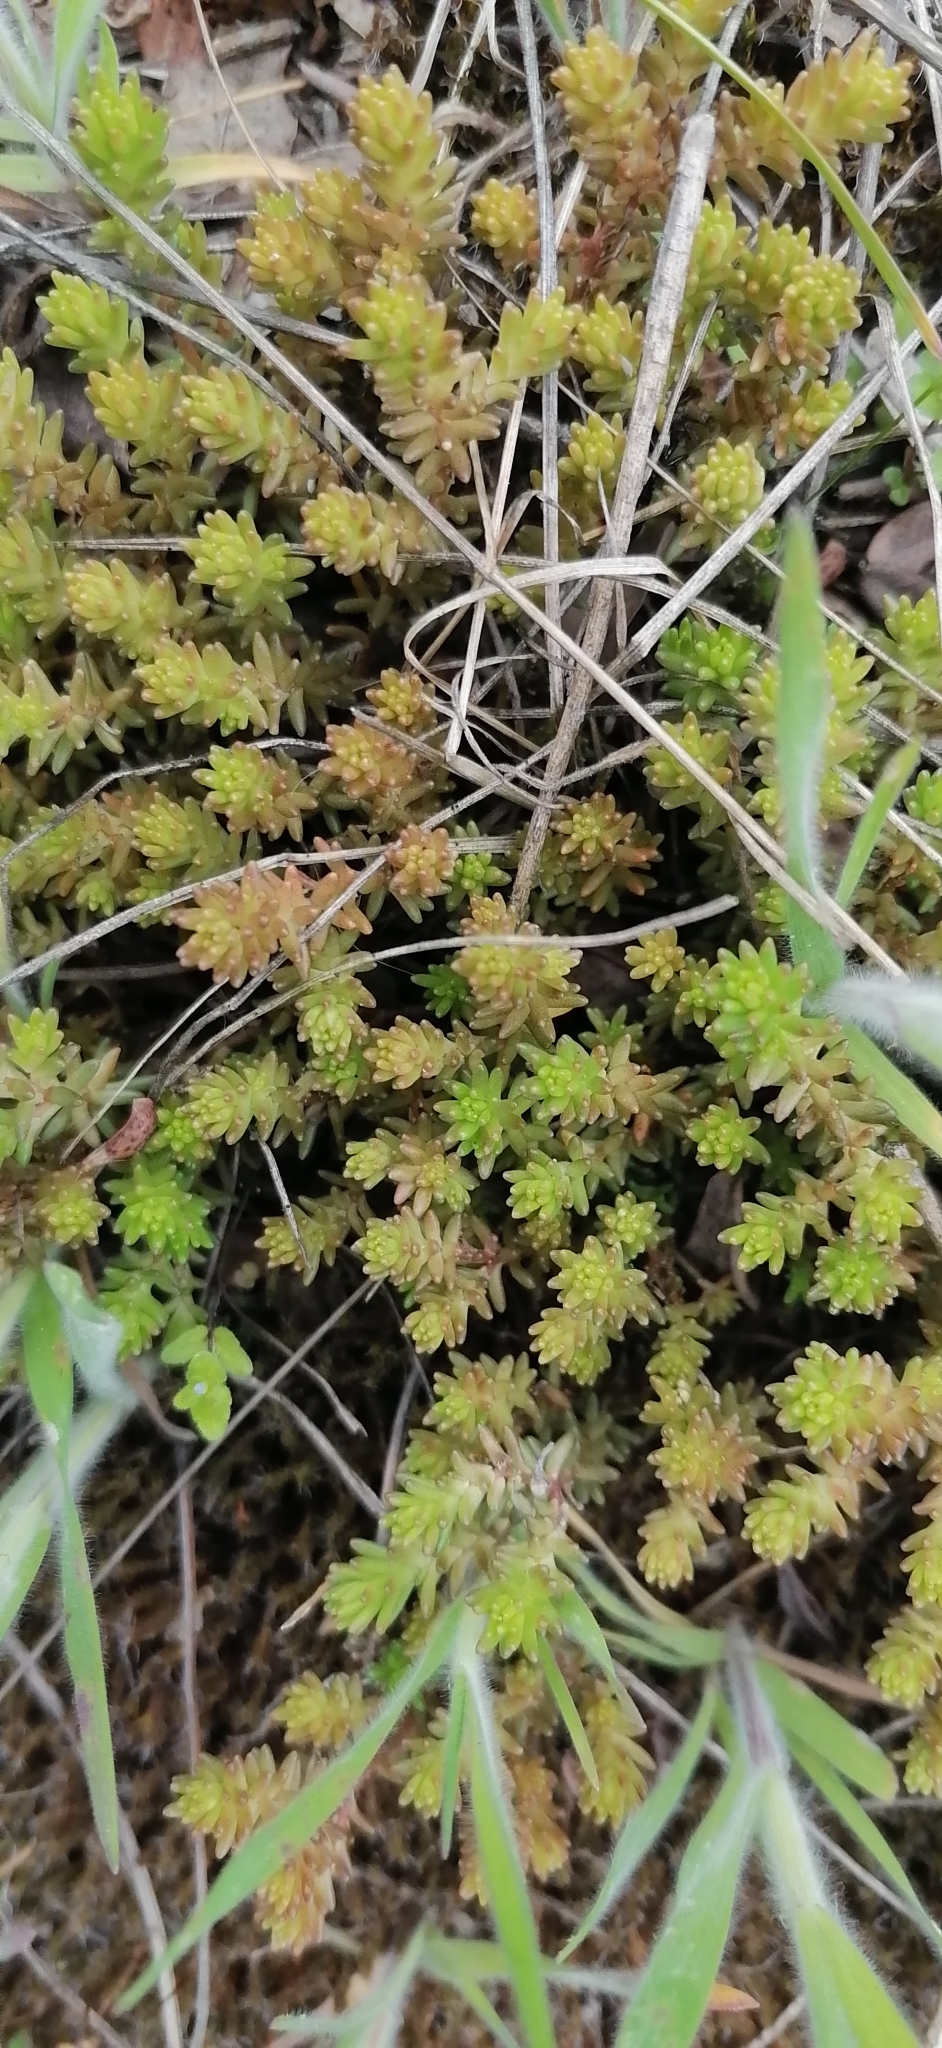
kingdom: Plantae
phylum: Tracheophyta
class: Magnoliopsida
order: Saxifragales
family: Crassulaceae
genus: Sedum
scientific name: Sedum sexangulare
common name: Tasteless stonecrop
